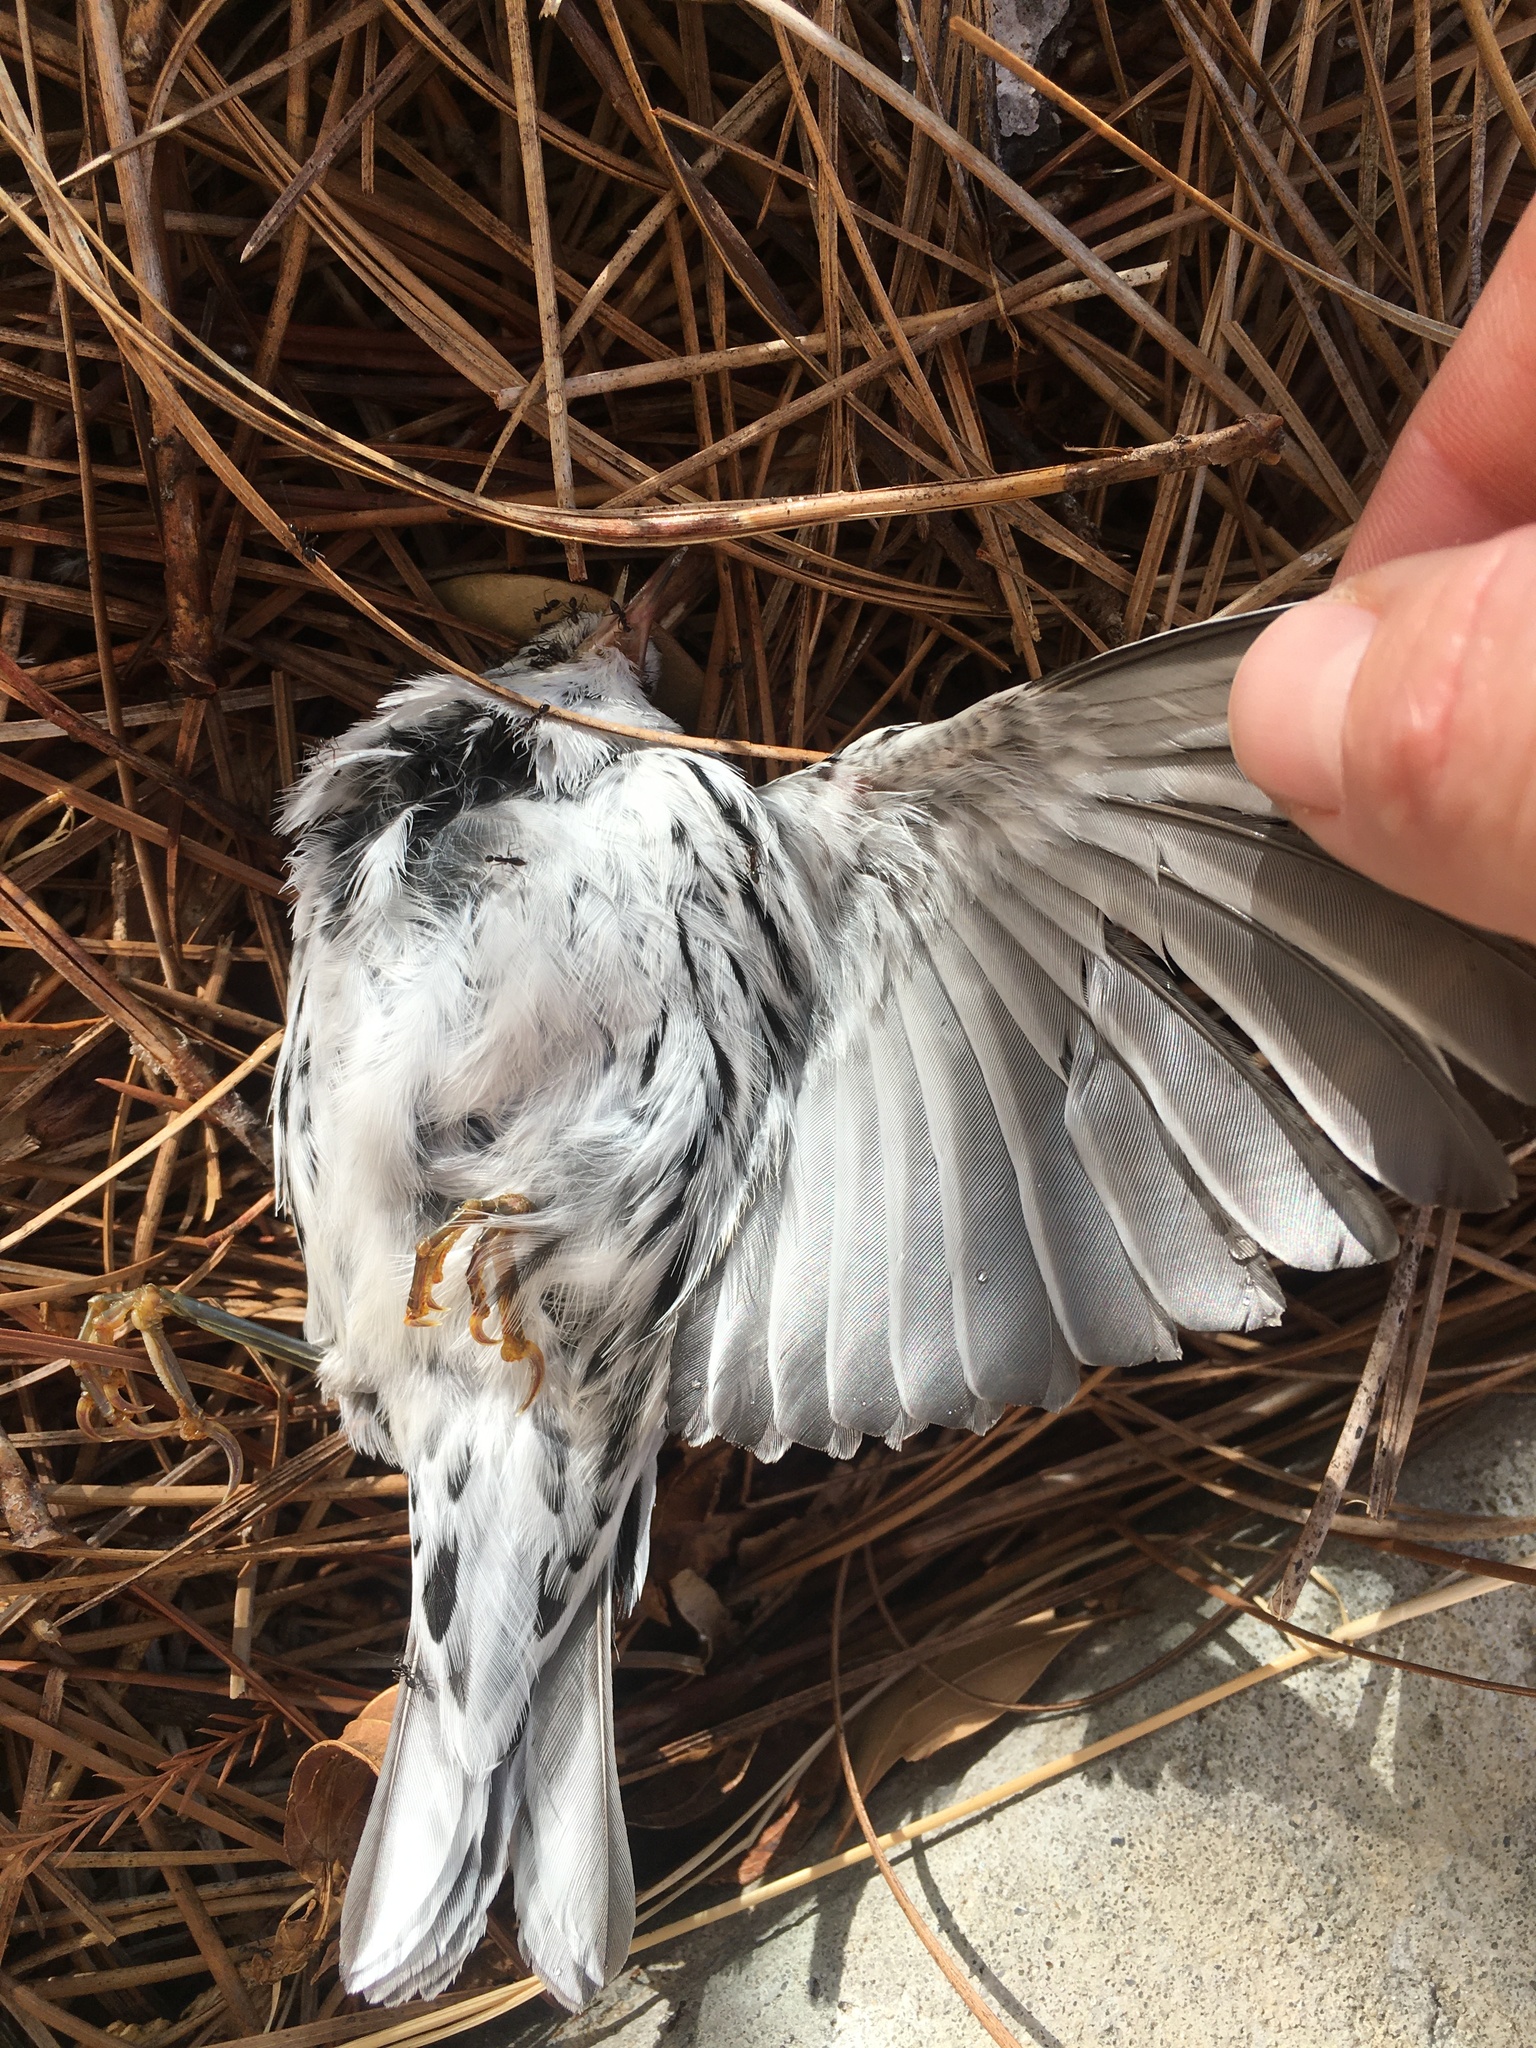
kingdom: Animalia
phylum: Chordata
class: Aves
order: Passeriformes
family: Parulidae
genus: Mniotilta
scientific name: Mniotilta varia
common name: Black-and-white warbler
